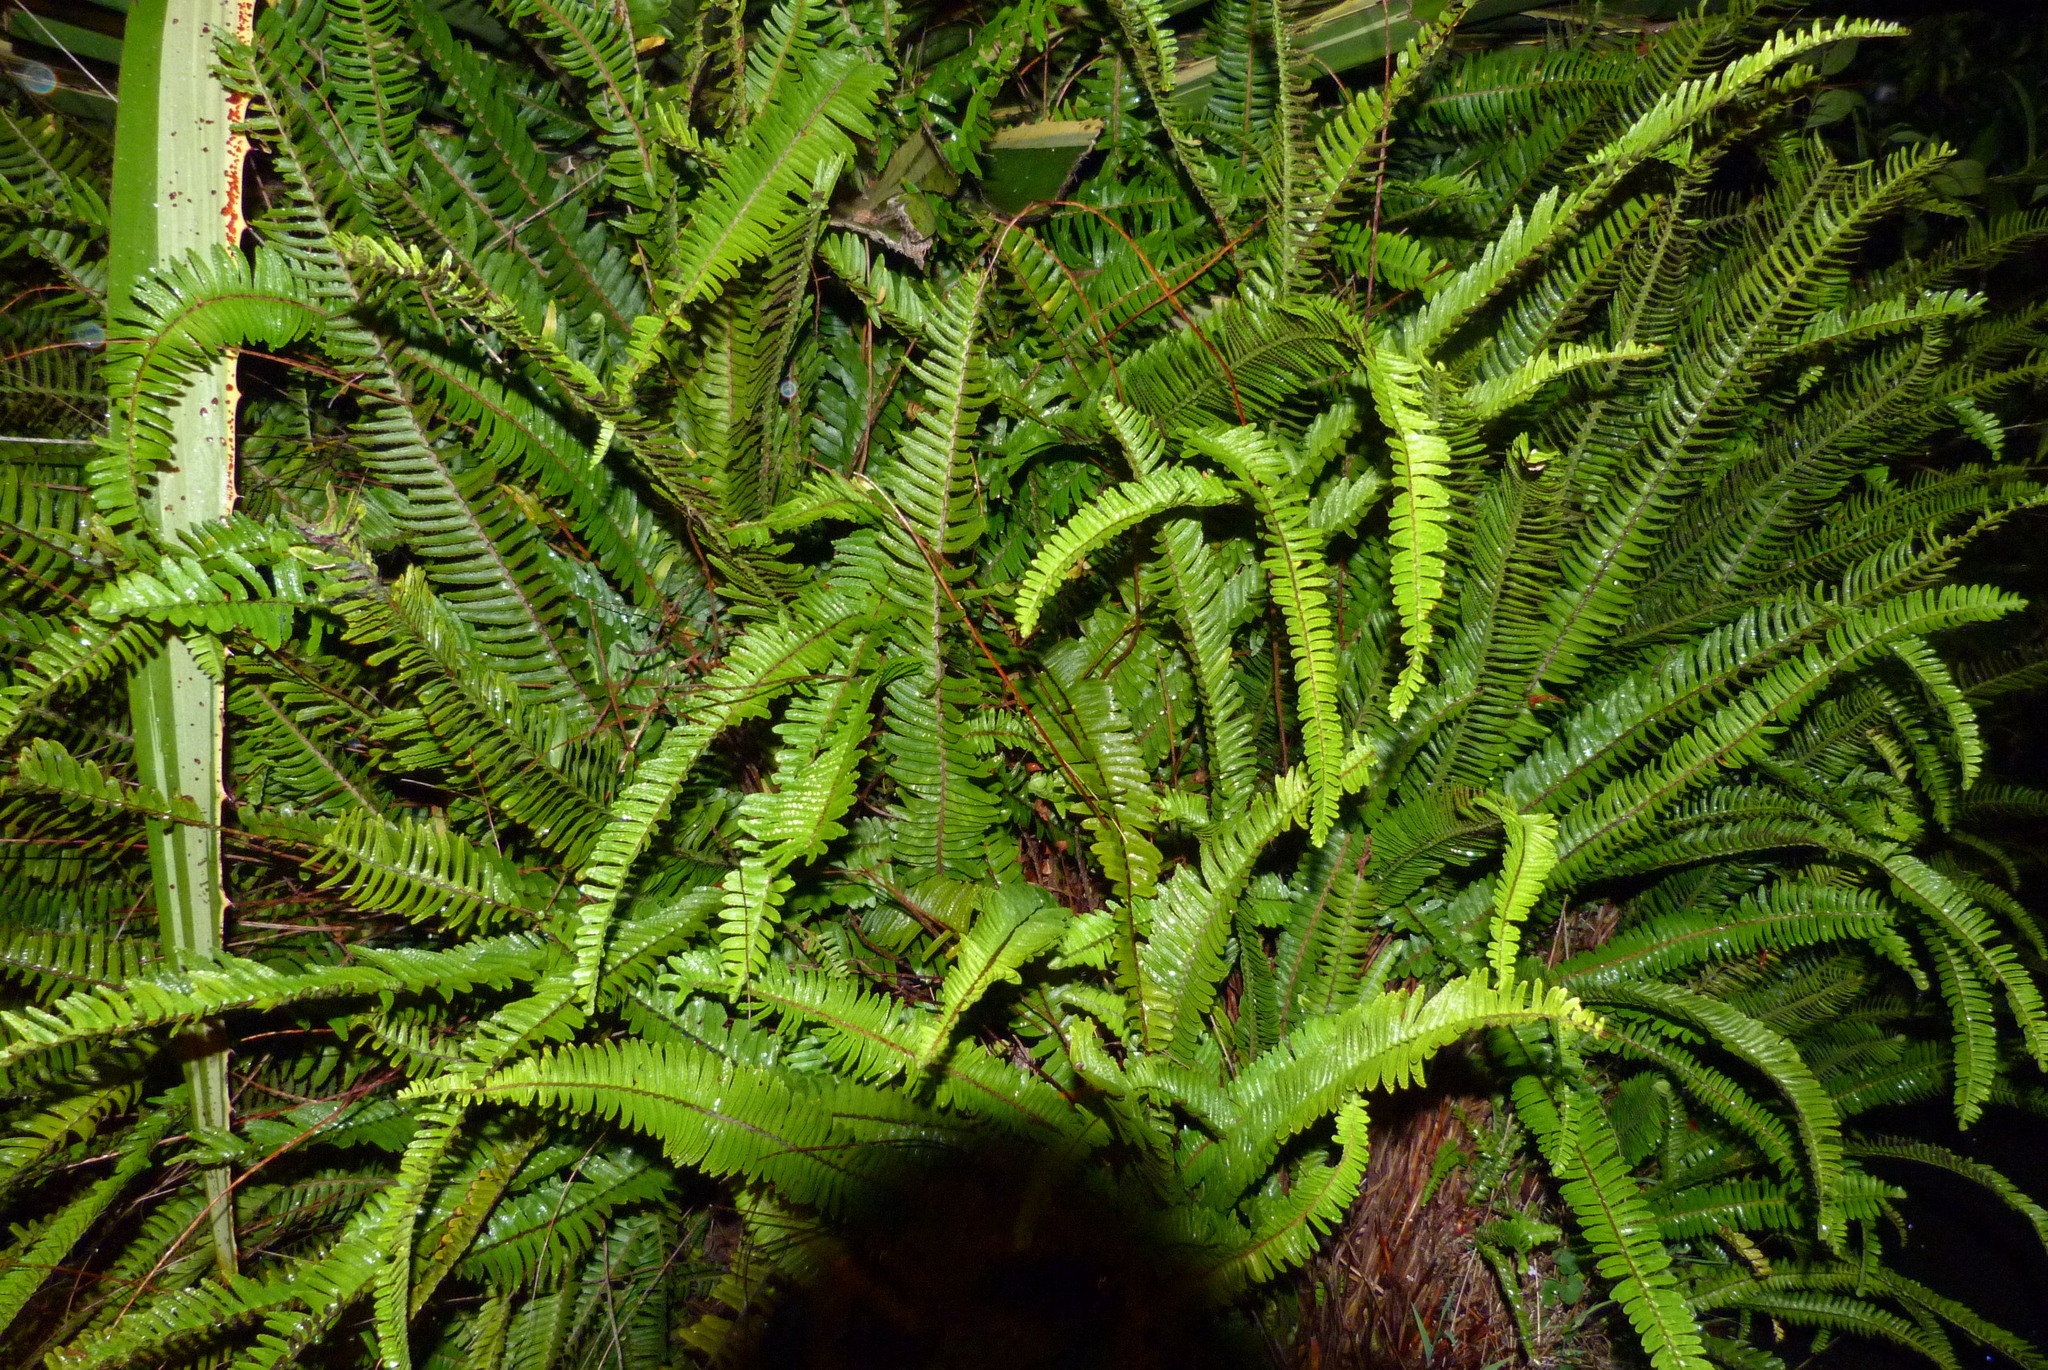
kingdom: Plantae
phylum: Tracheophyta
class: Polypodiopsida
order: Polypodiales
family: Nephrolepidaceae
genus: Nephrolepis
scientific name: Nephrolepis cordifolia
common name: Narrow swordfern
